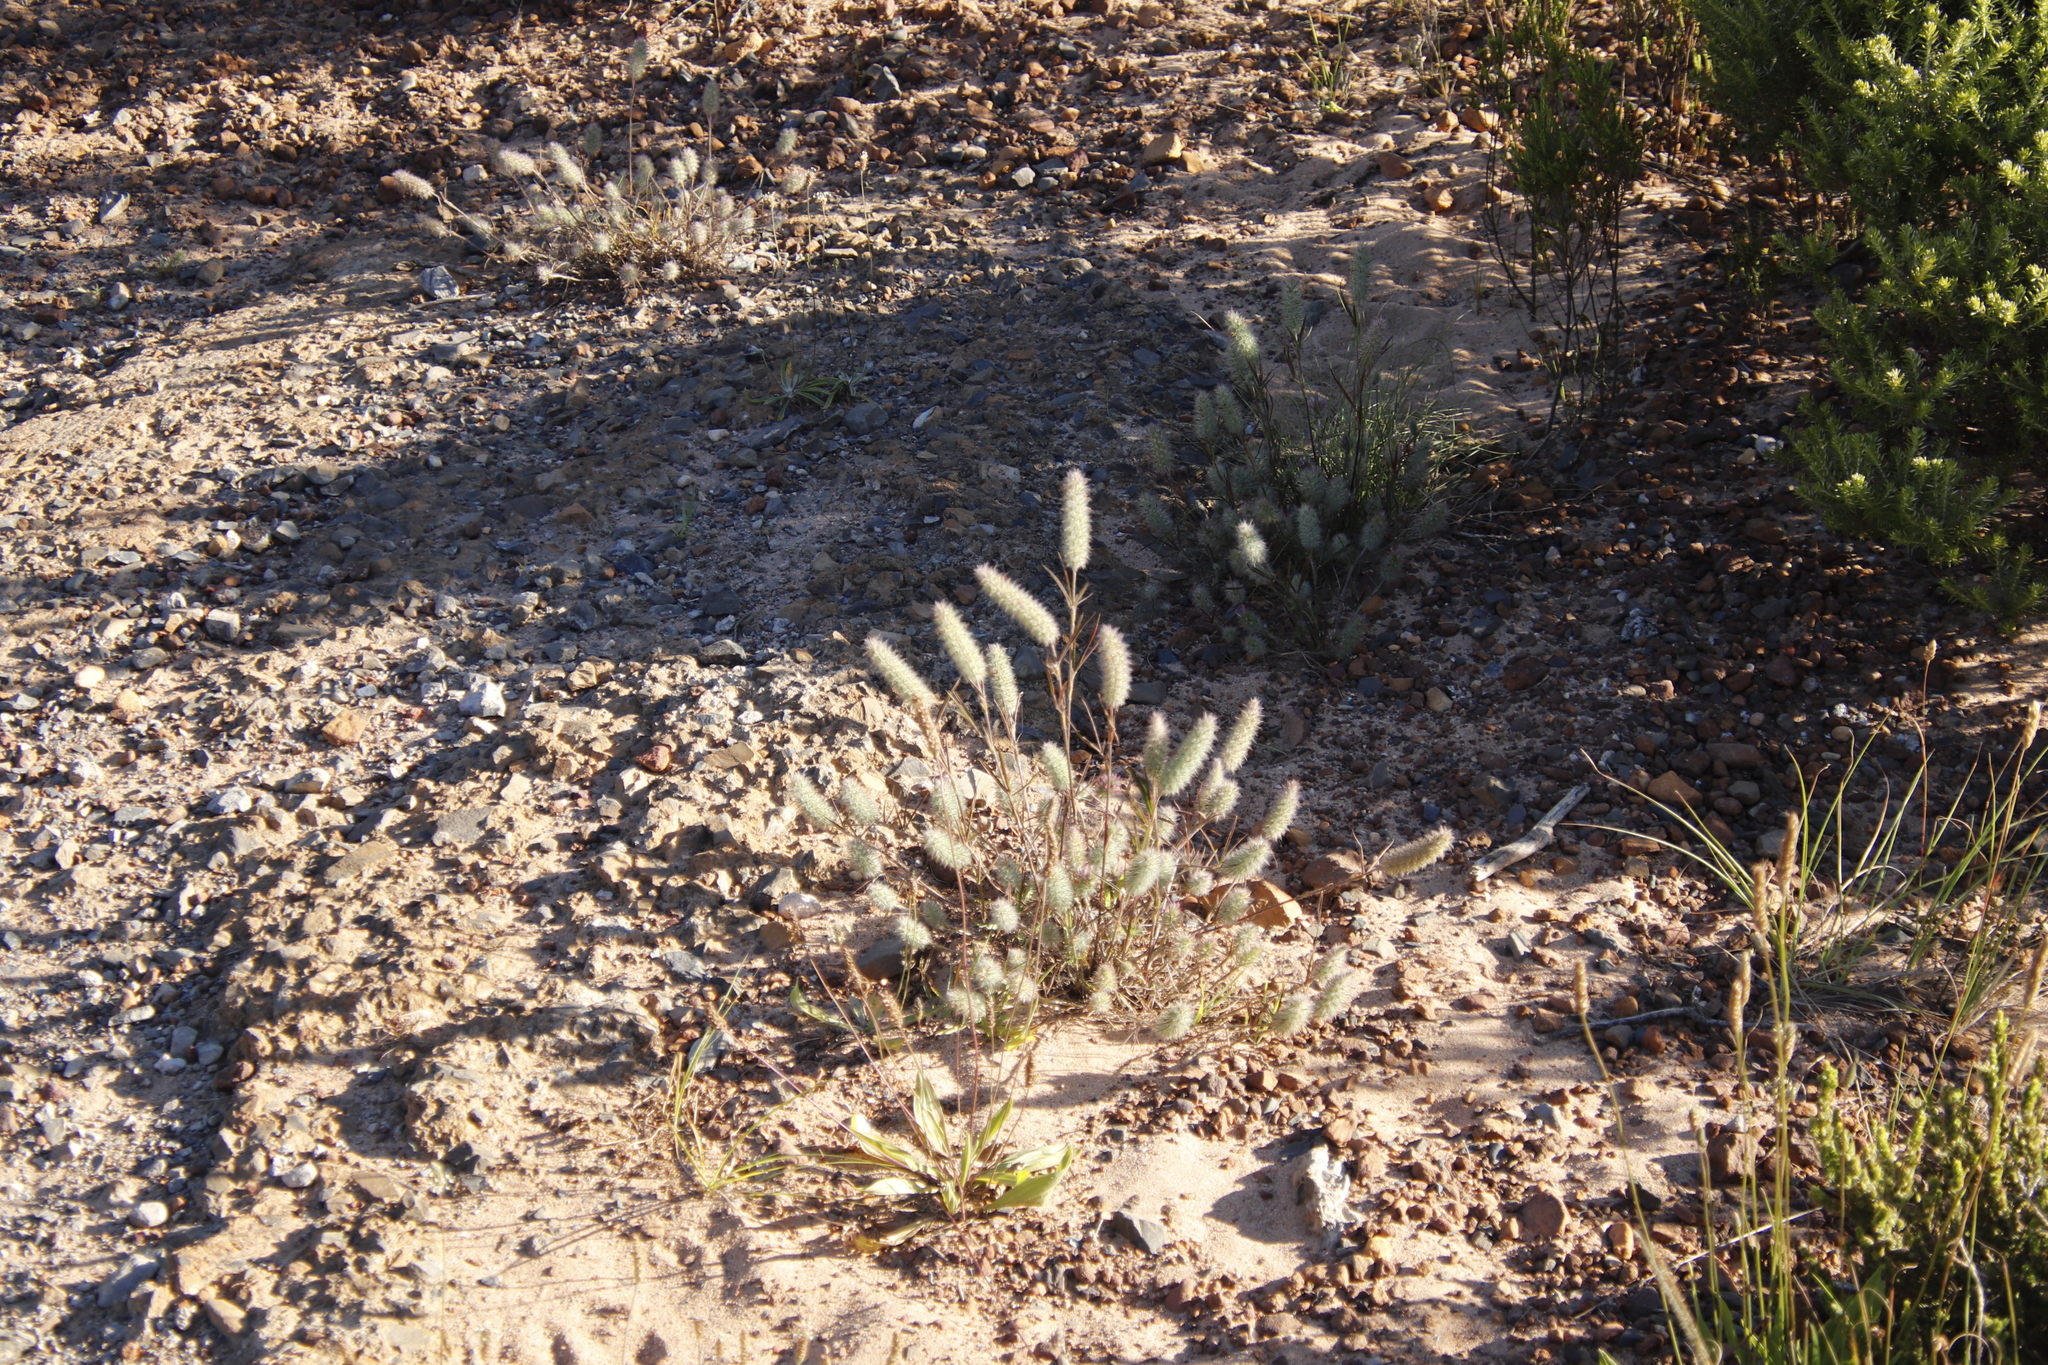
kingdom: Plantae
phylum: Tracheophyta
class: Magnoliopsida
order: Fabales
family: Fabaceae
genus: Trifolium
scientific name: Trifolium angustifolium
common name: Narrow clover
